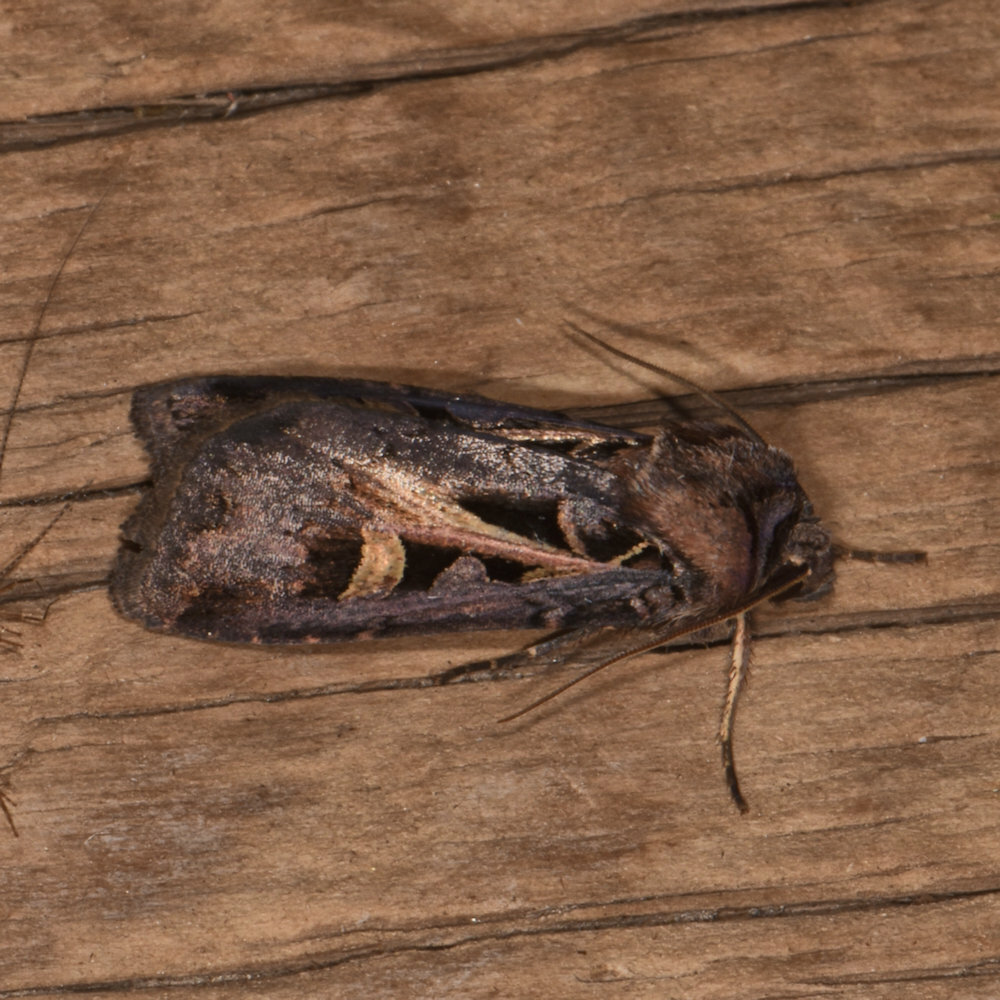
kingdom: Animalia
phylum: Arthropoda
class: Insecta
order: Lepidoptera
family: Noctuidae
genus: Feltia
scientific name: Feltia herilis
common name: Master's dart
